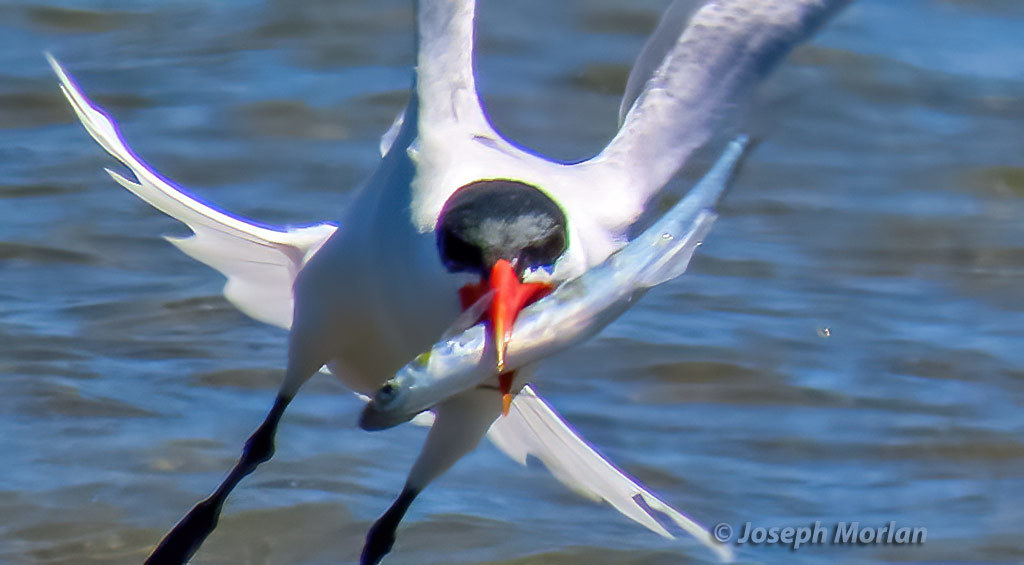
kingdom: Animalia
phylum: Chordata
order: Atheriniformes
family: Atherinopsidae
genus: Atherinopsis
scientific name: Atherinopsis californiensis
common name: Jack silverside
